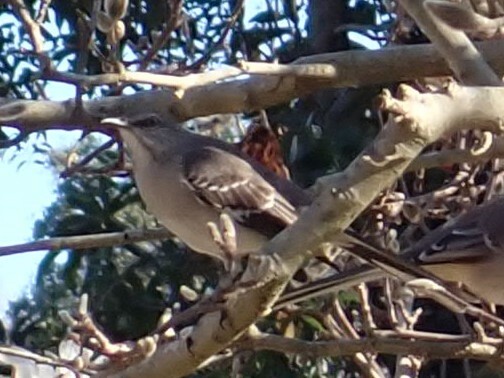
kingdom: Animalia
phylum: Chordata
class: Aves
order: Passeriformes
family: Mimidae
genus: Mimus
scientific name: Mimus polyglottos
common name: Northern mockingbird
